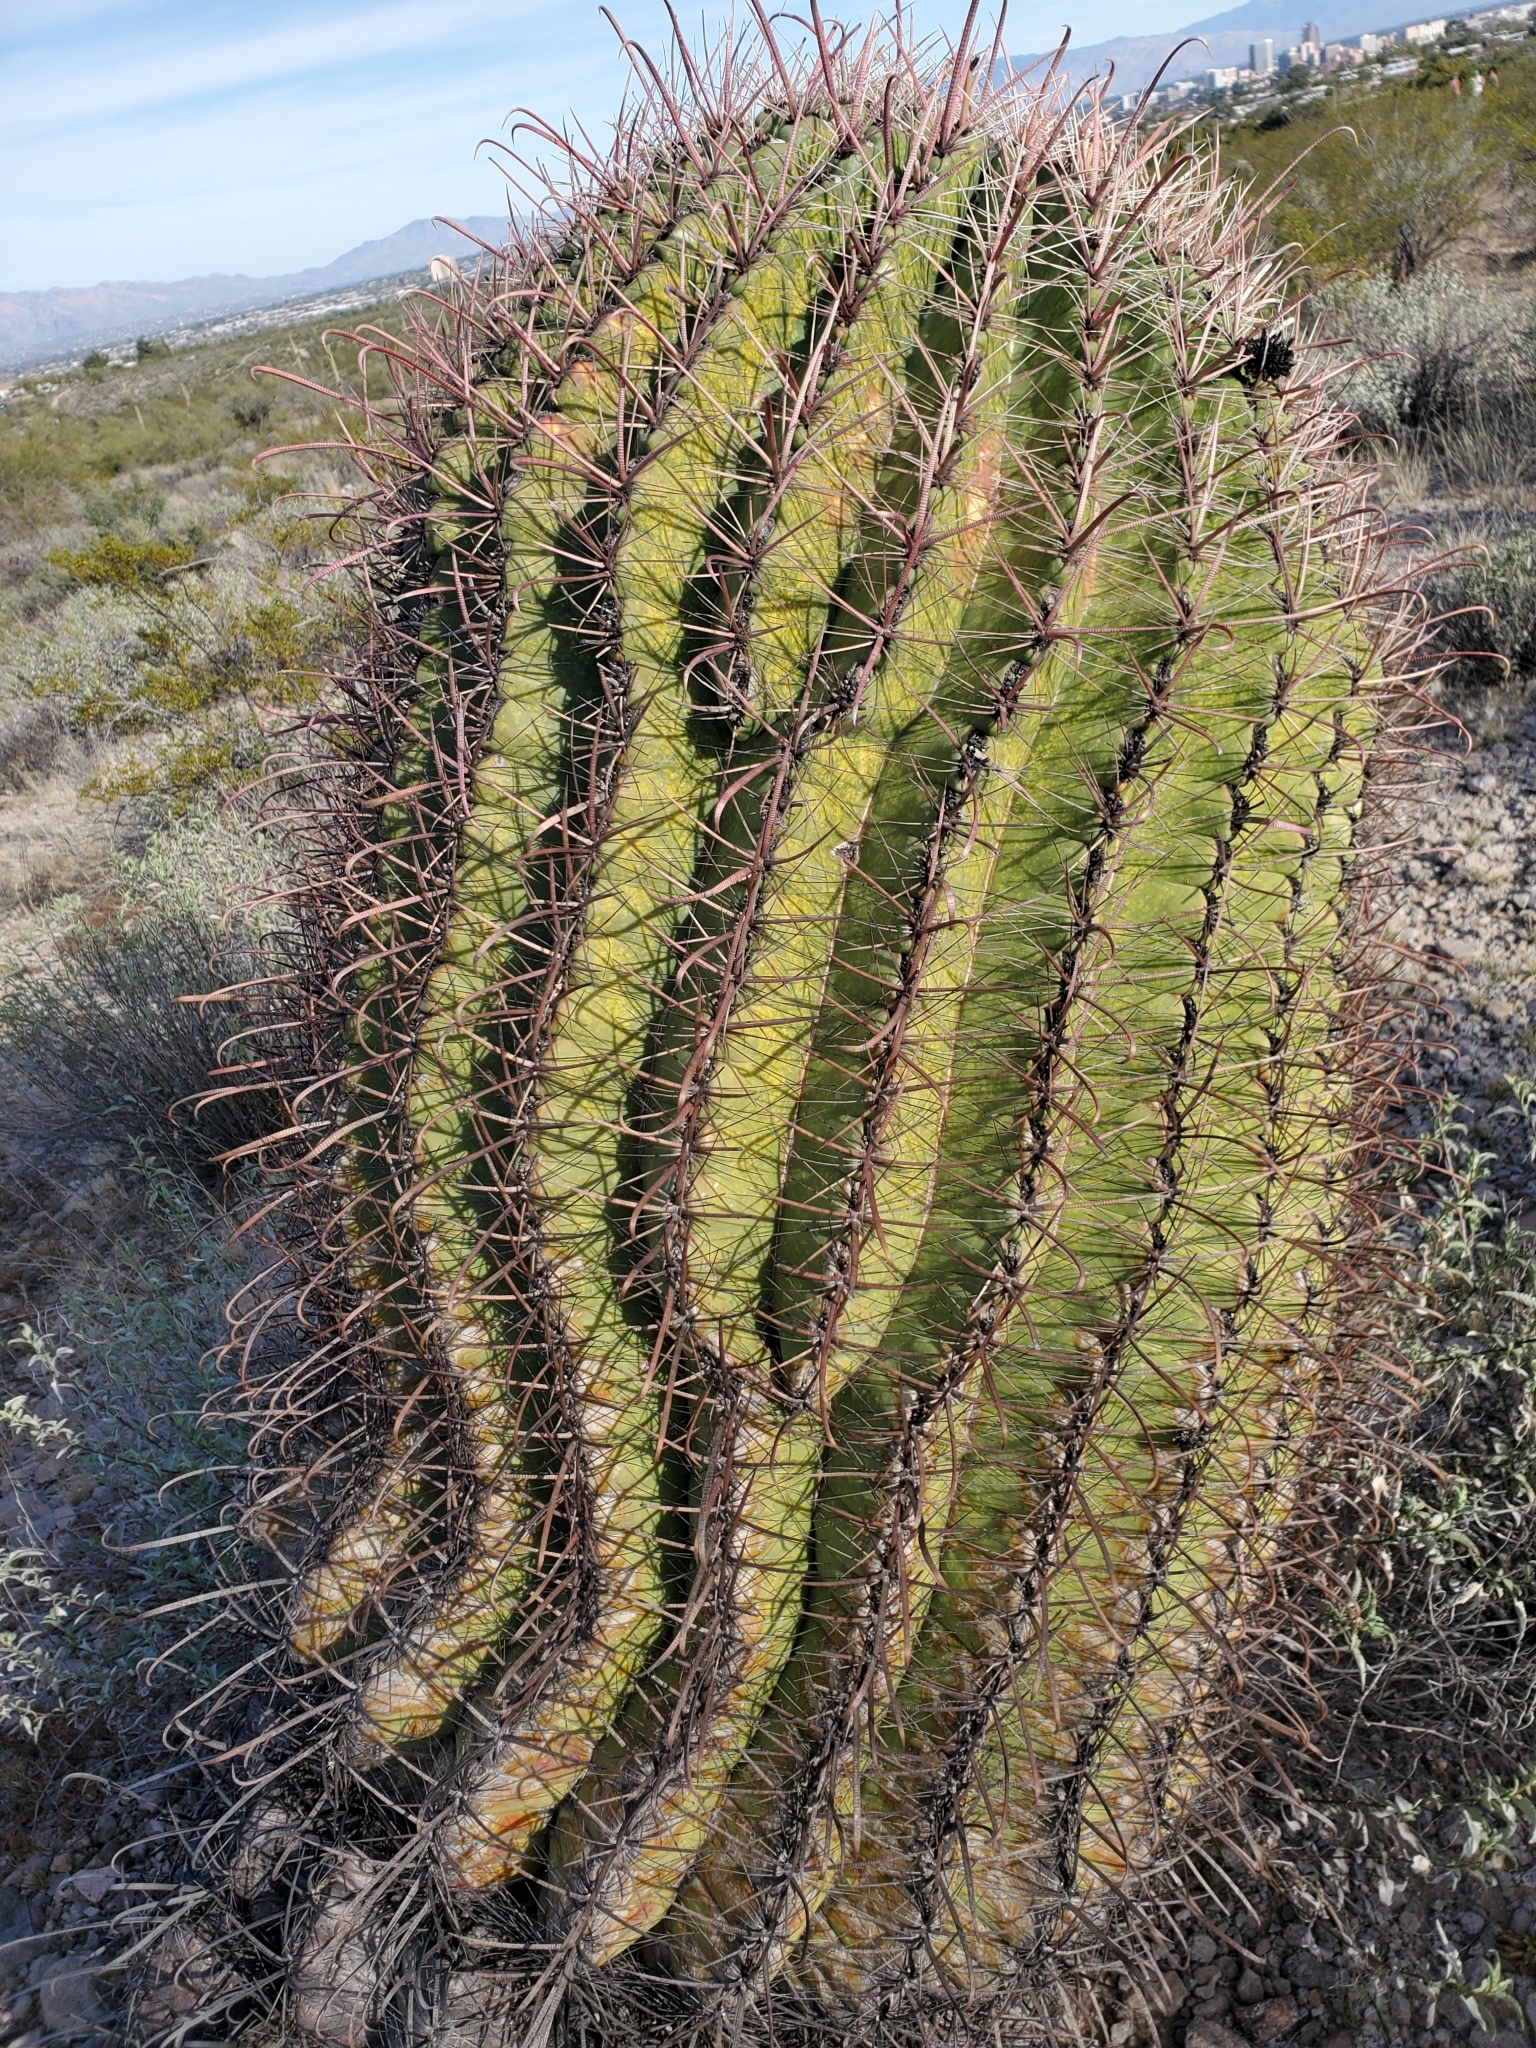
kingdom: Plantae
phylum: Tracheophyta
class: Magnoliopsida
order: Caryophyllales
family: Cactaceae
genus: Ferocactus
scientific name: Ferocactus wislizeni
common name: Candy barrel cactus
